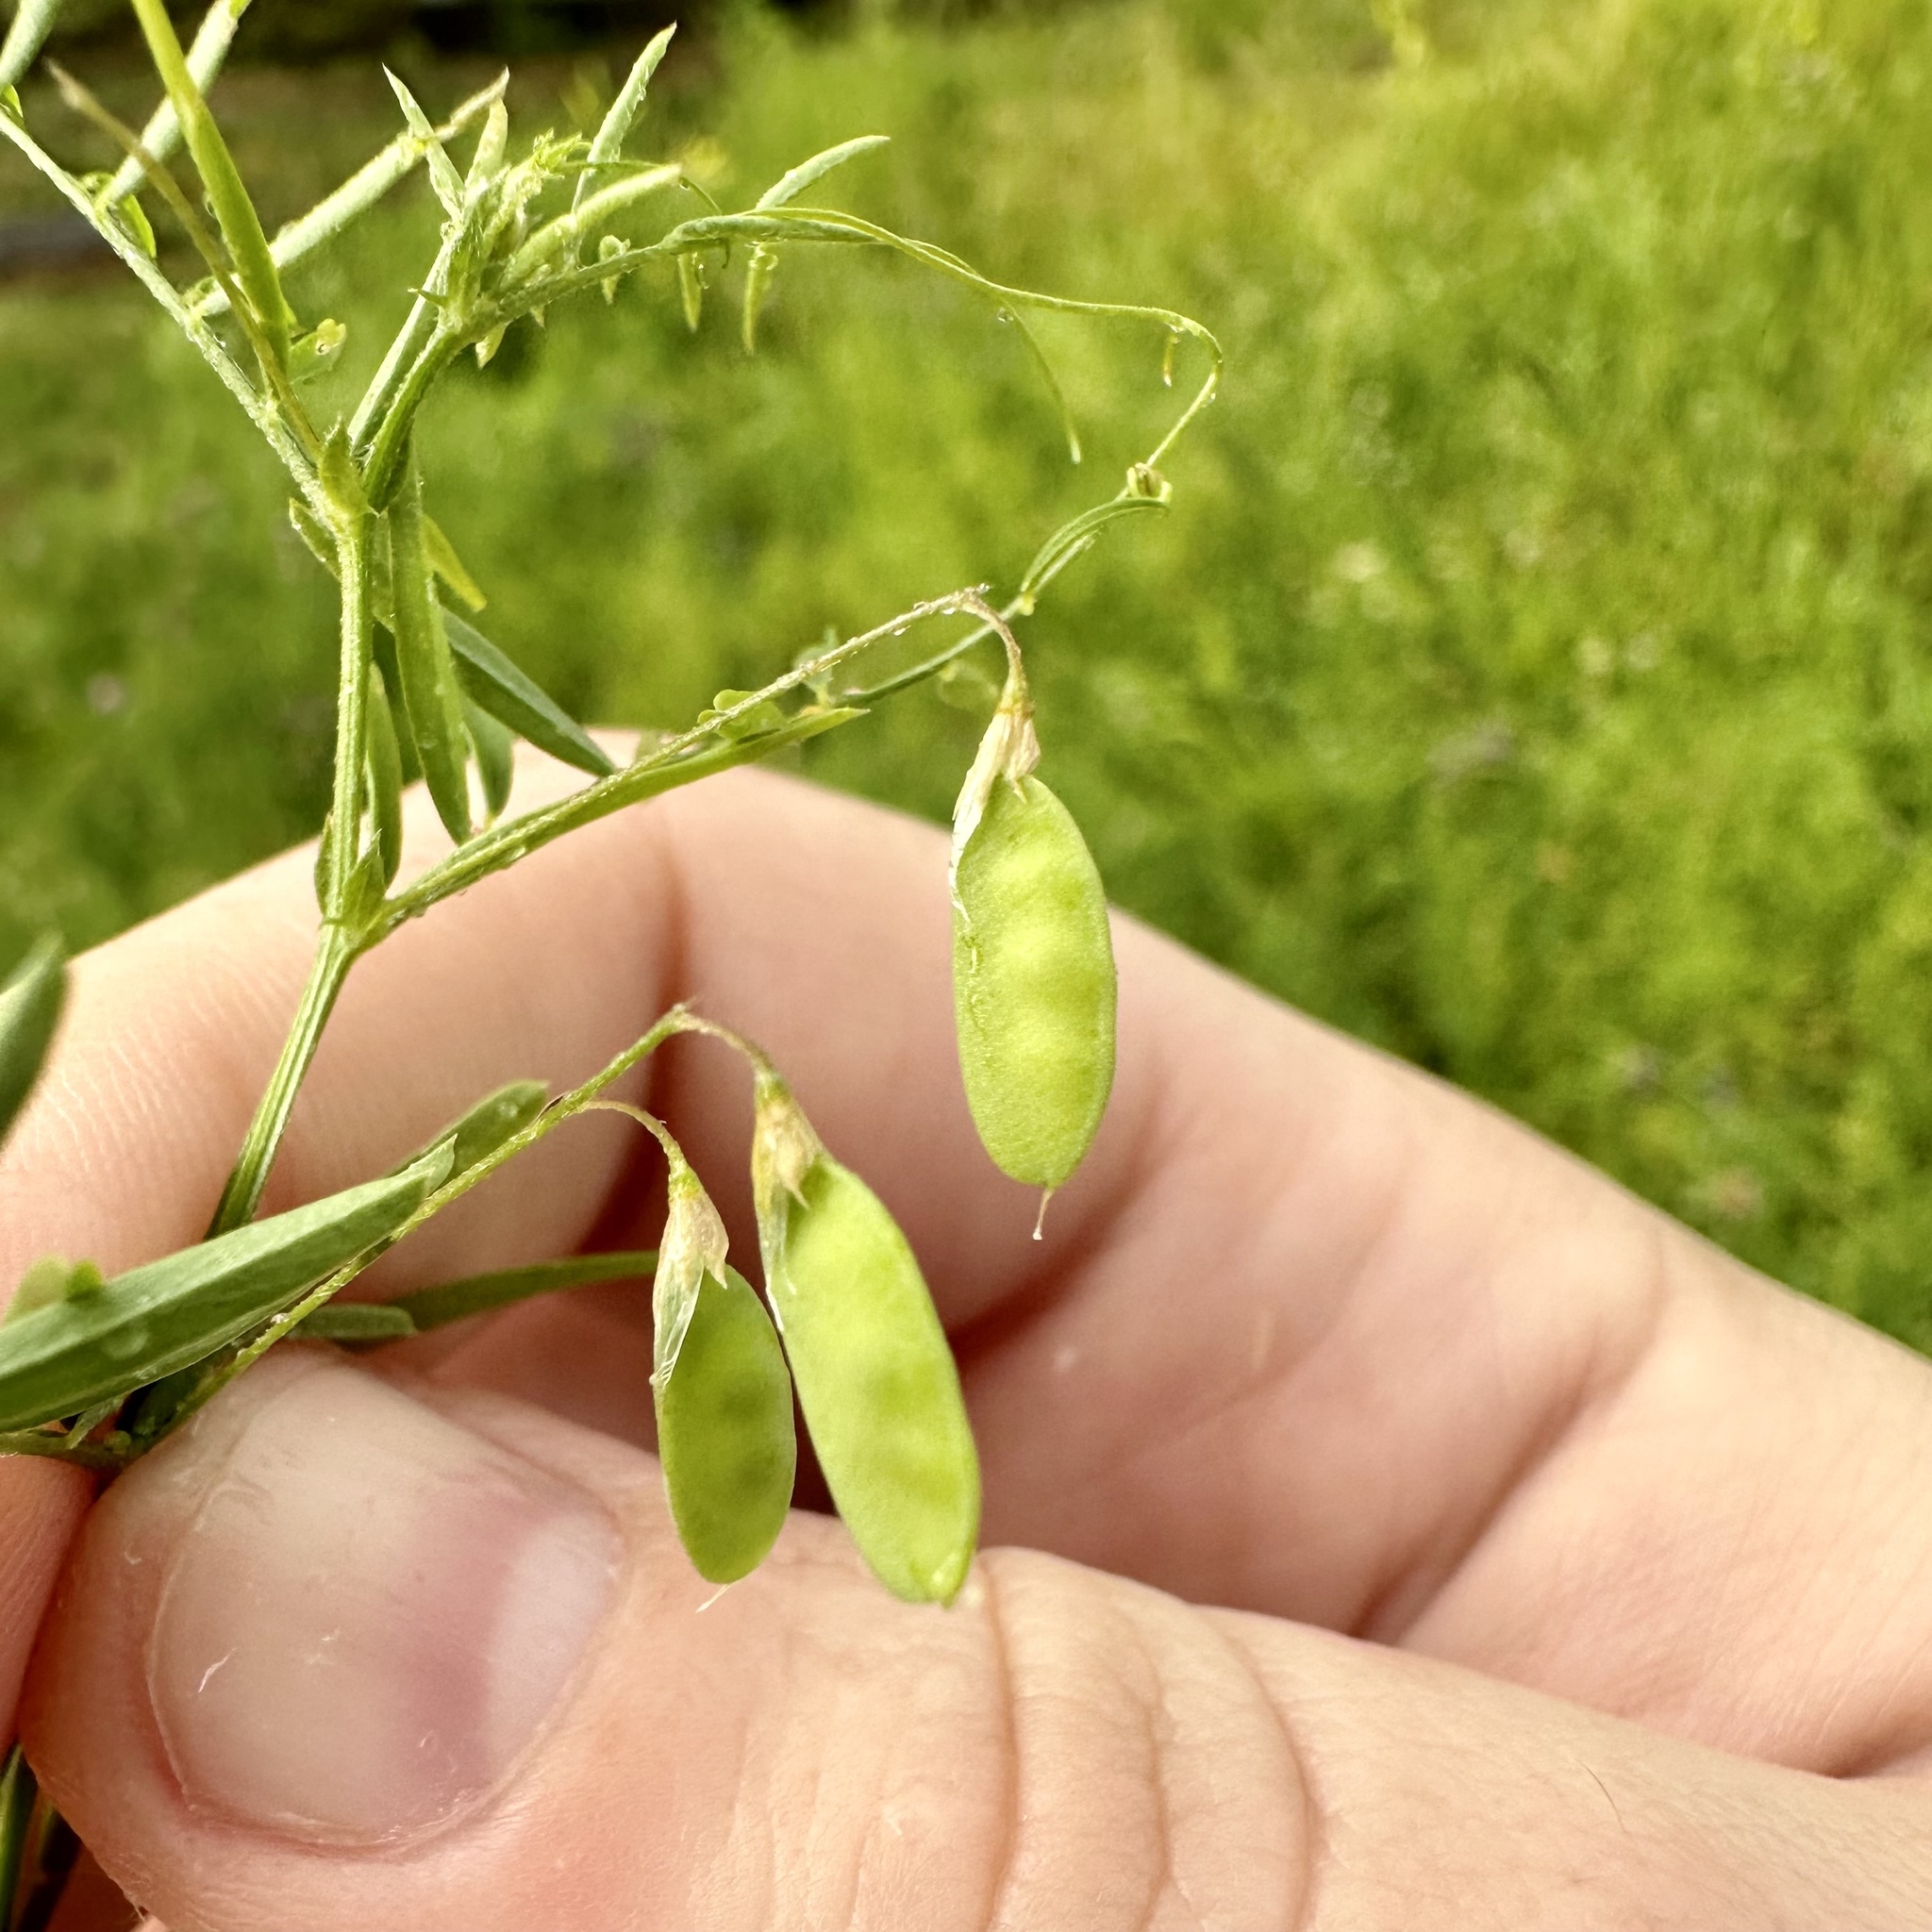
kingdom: Plantae
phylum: Tracheophyta
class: Magnoliopsida
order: Fabales
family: Fabaceae
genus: Vicia
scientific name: Vicia tetrasperma
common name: Smooth tare
